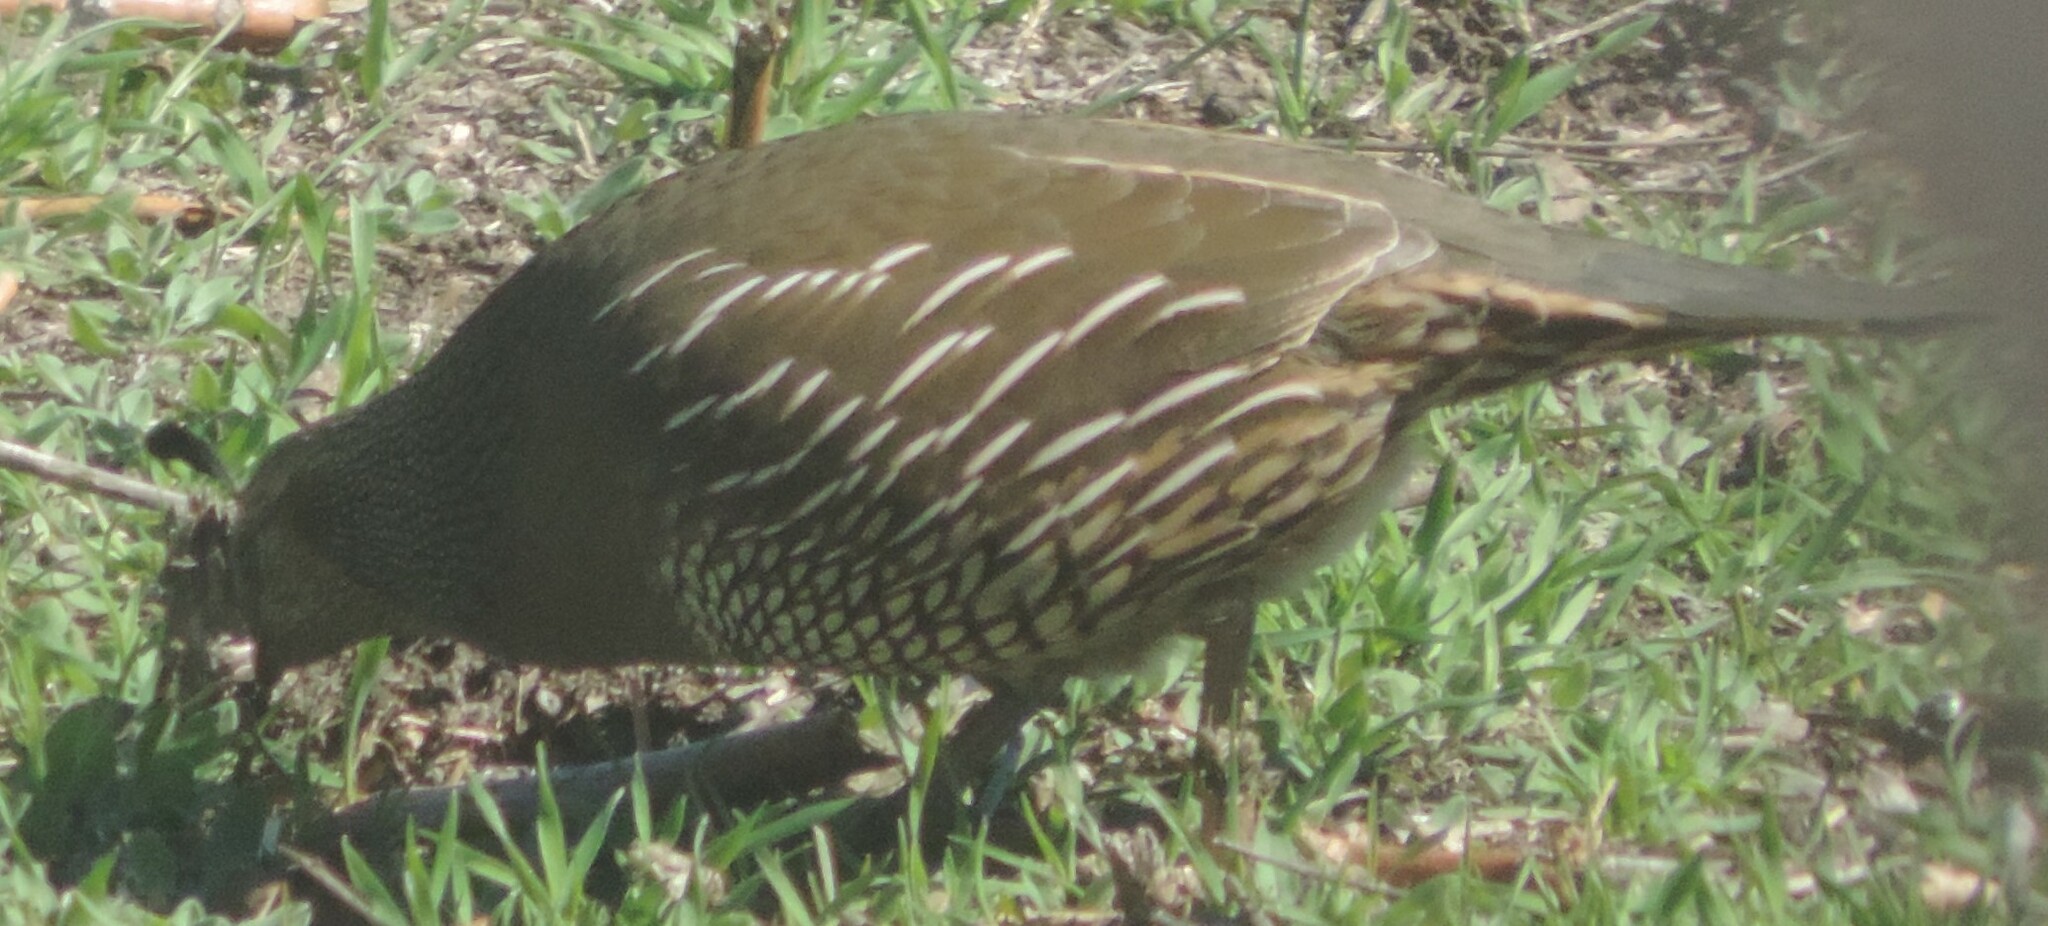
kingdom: Animalia
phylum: Chordata
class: Aves
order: Galliformes
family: Odontophoridae
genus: Callipepla
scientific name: Callipepla californica
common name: California quail
